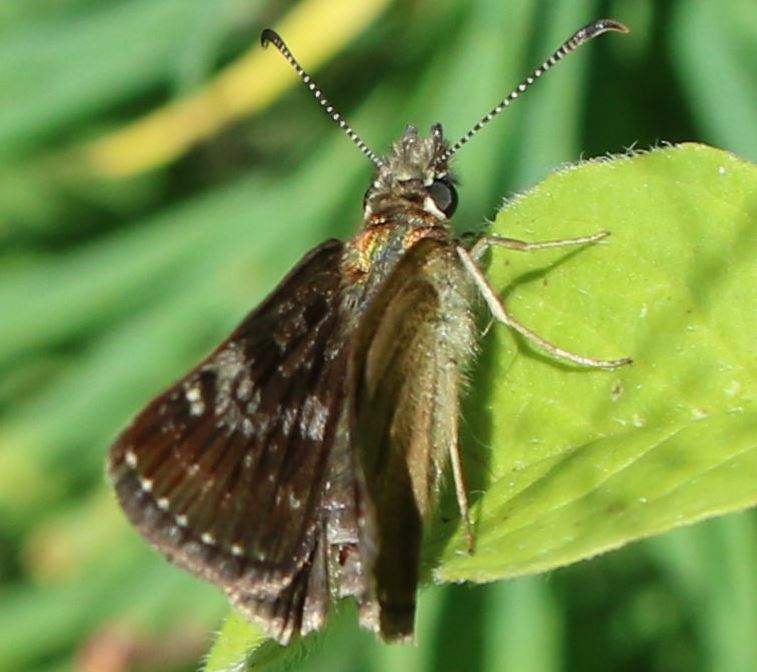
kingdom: Animalia
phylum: Arthropoda
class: Insecta
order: Lepidoptera
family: Hesperiidae
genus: Erynnis
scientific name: Erynnis tages
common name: Dingy skipper
